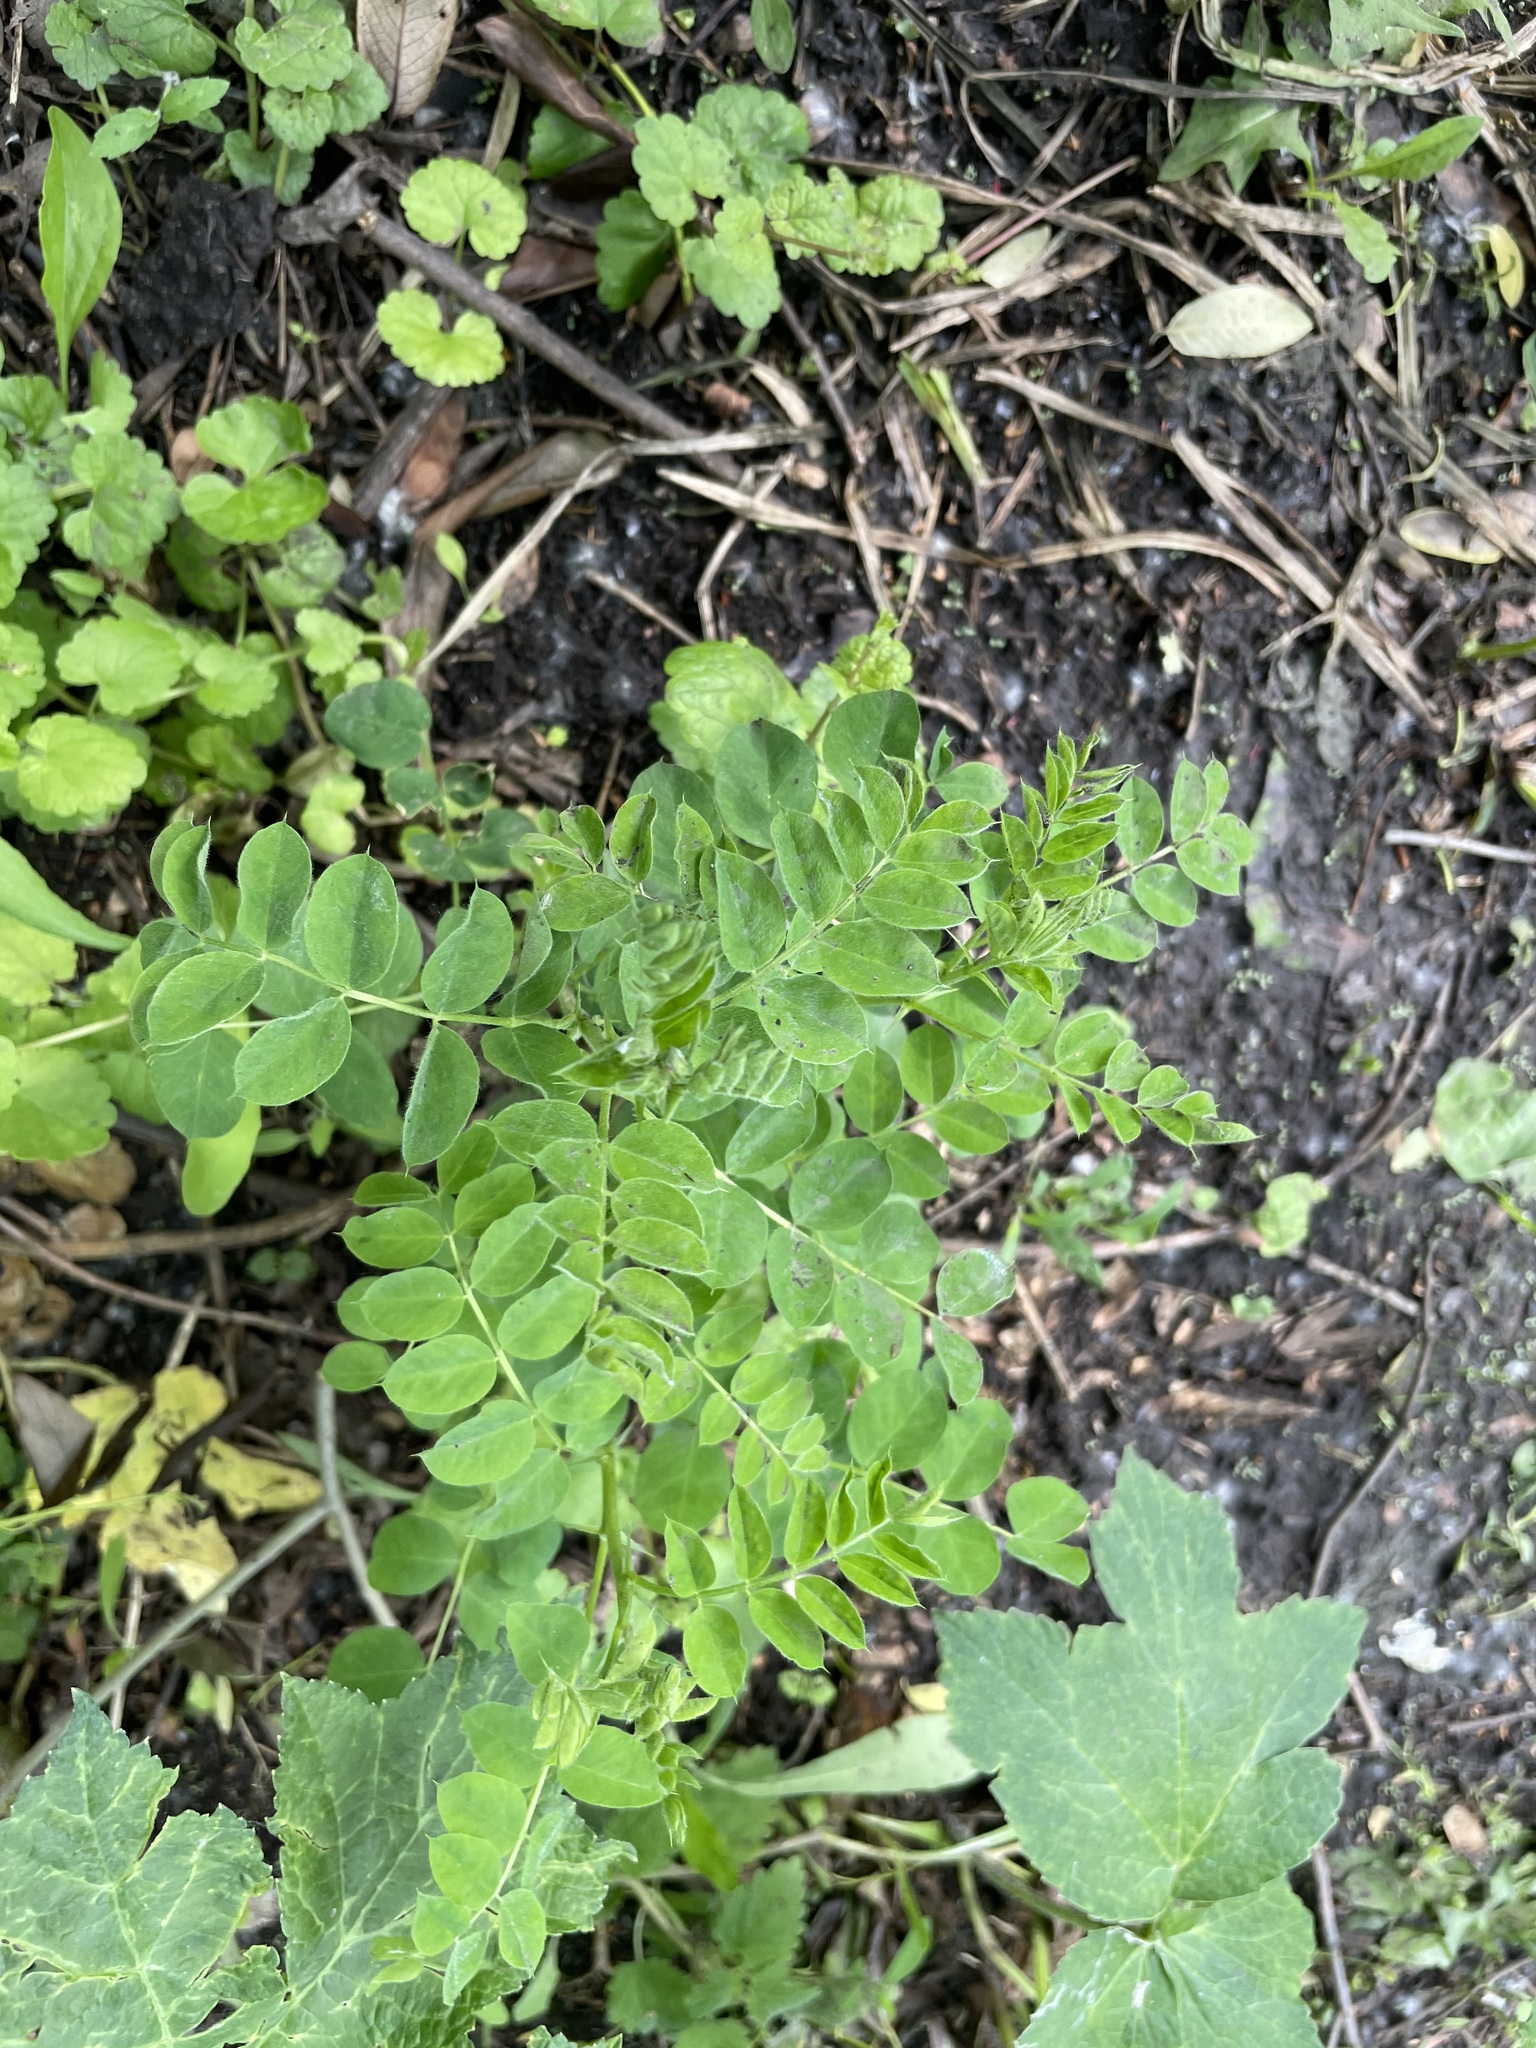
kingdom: Plantae
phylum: Tracheophyta
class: Magnoliopsida
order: Fabales
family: Fabaceae
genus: Caragana
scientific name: Caragana arborescens
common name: Siberian peashrub
